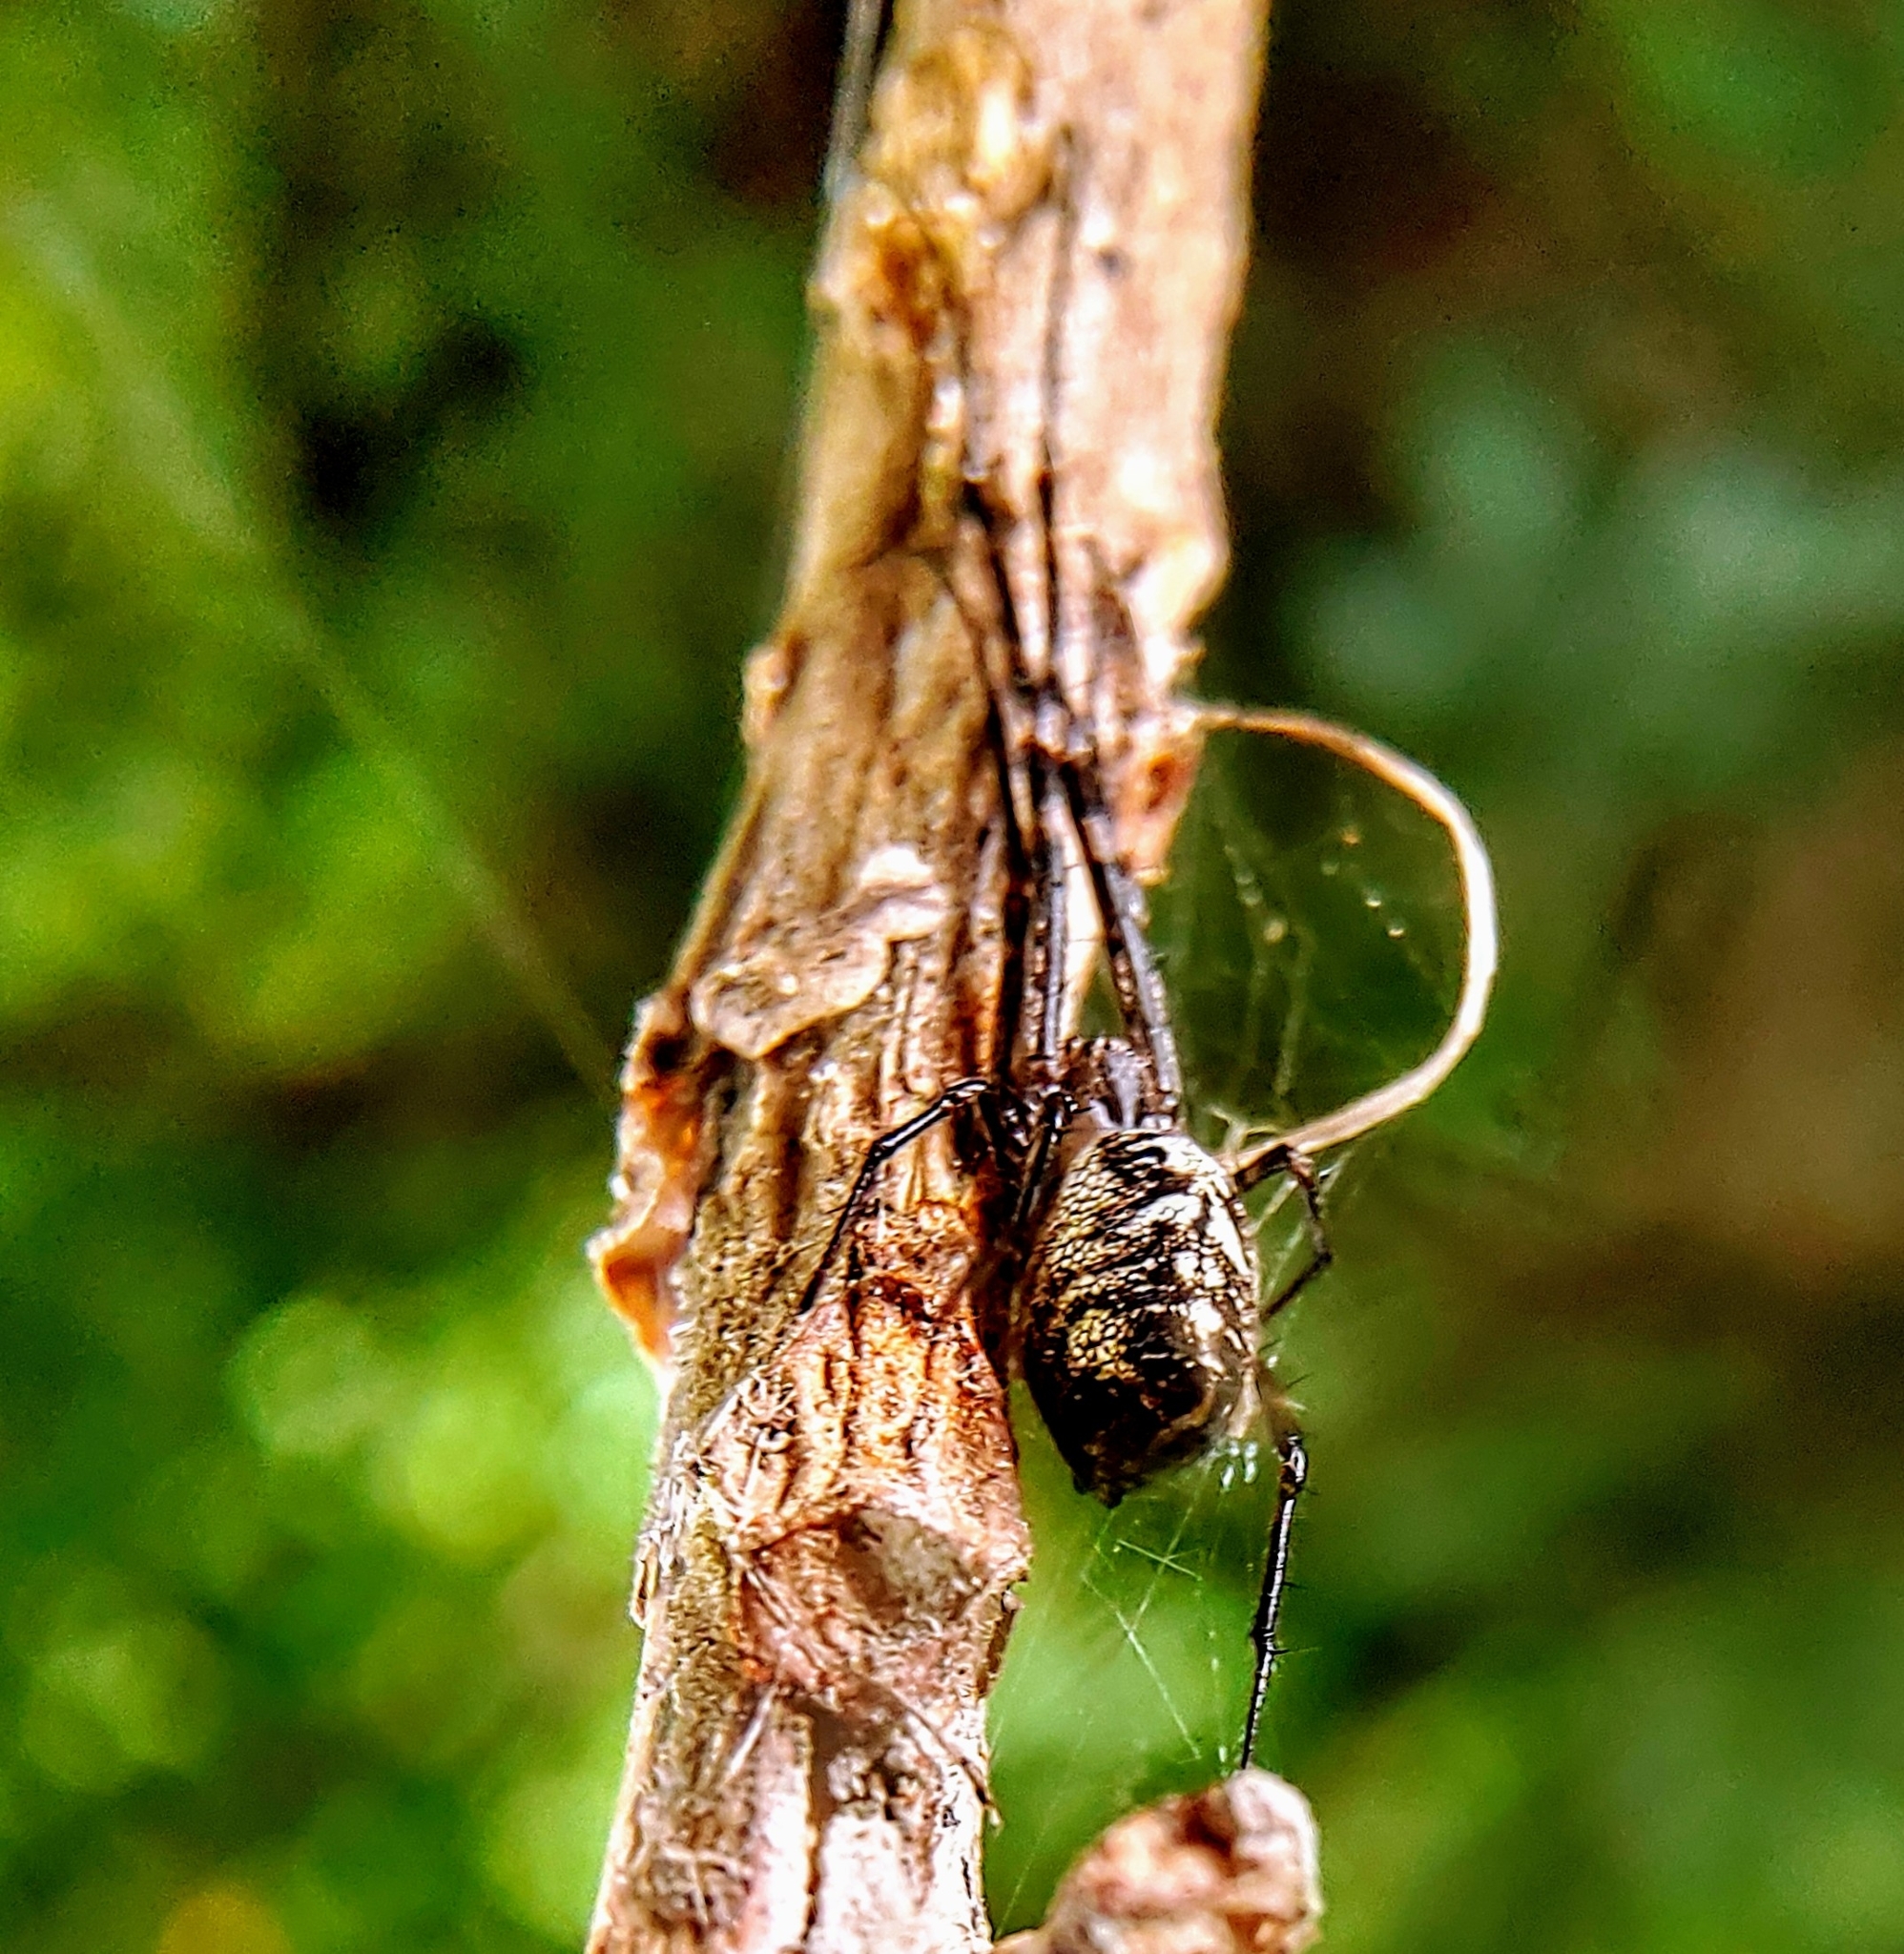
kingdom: Animalia
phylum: Arthropoda
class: Arachnida
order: Araneae
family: Tetragnathidae
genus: Tylorida
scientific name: Tylorida ventralis
